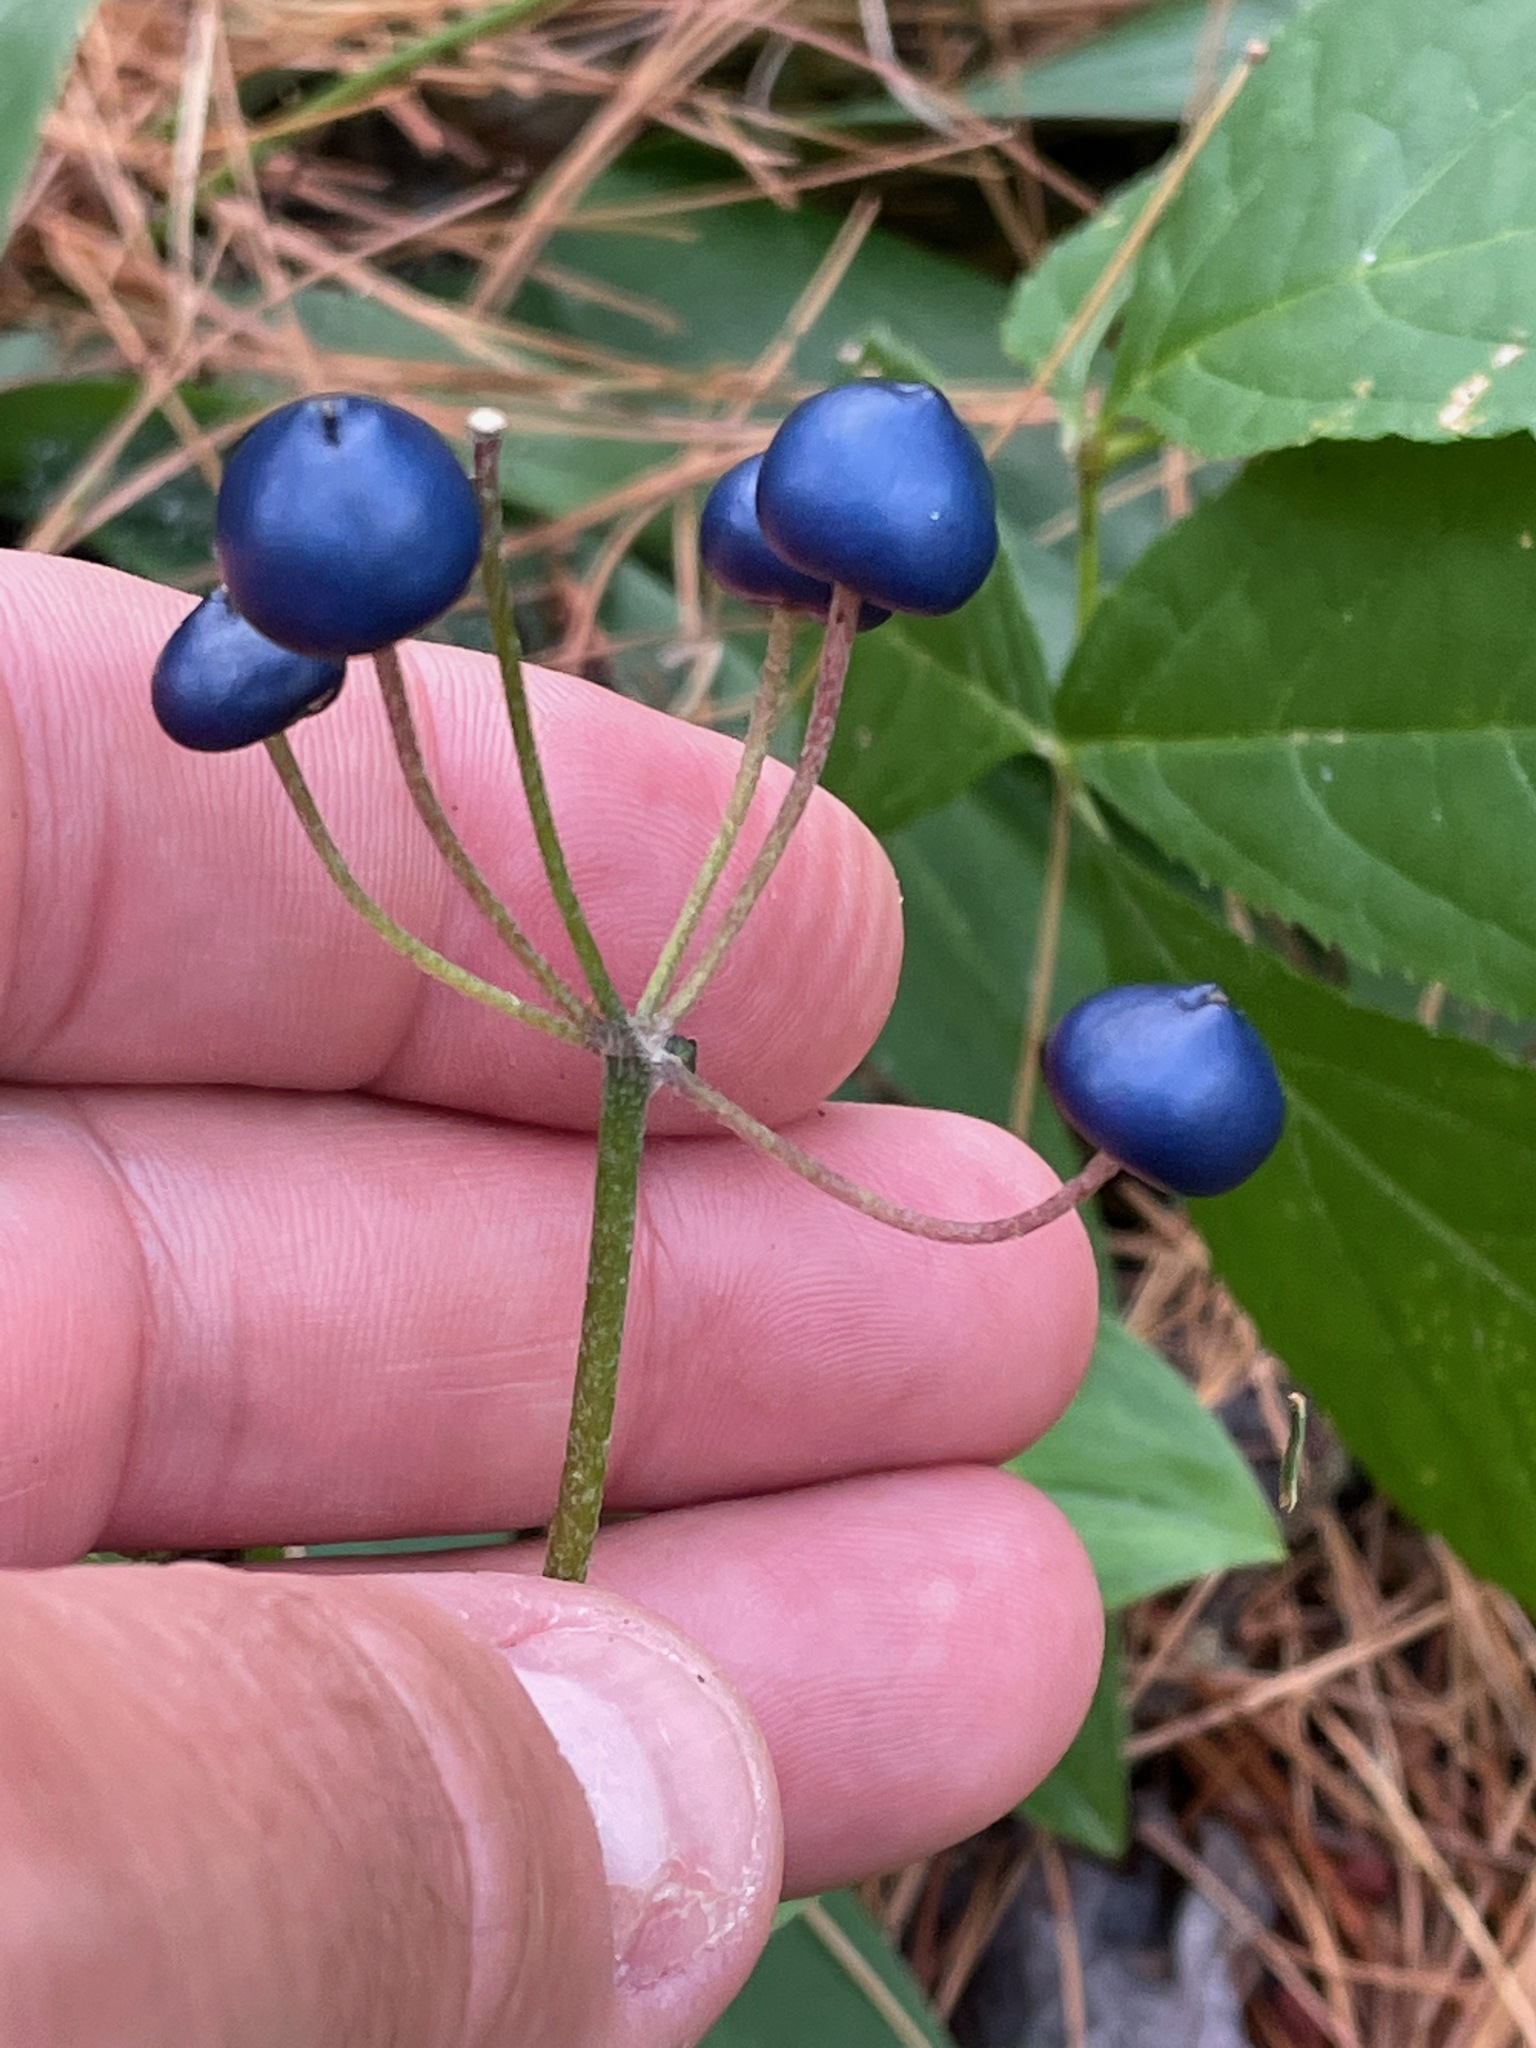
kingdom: Plantae
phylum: Tracheophyta
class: Liliopsida
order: Liliales
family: Liliaceae
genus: Clintonia
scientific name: Clintonia borealis
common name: Yellow clintonia
